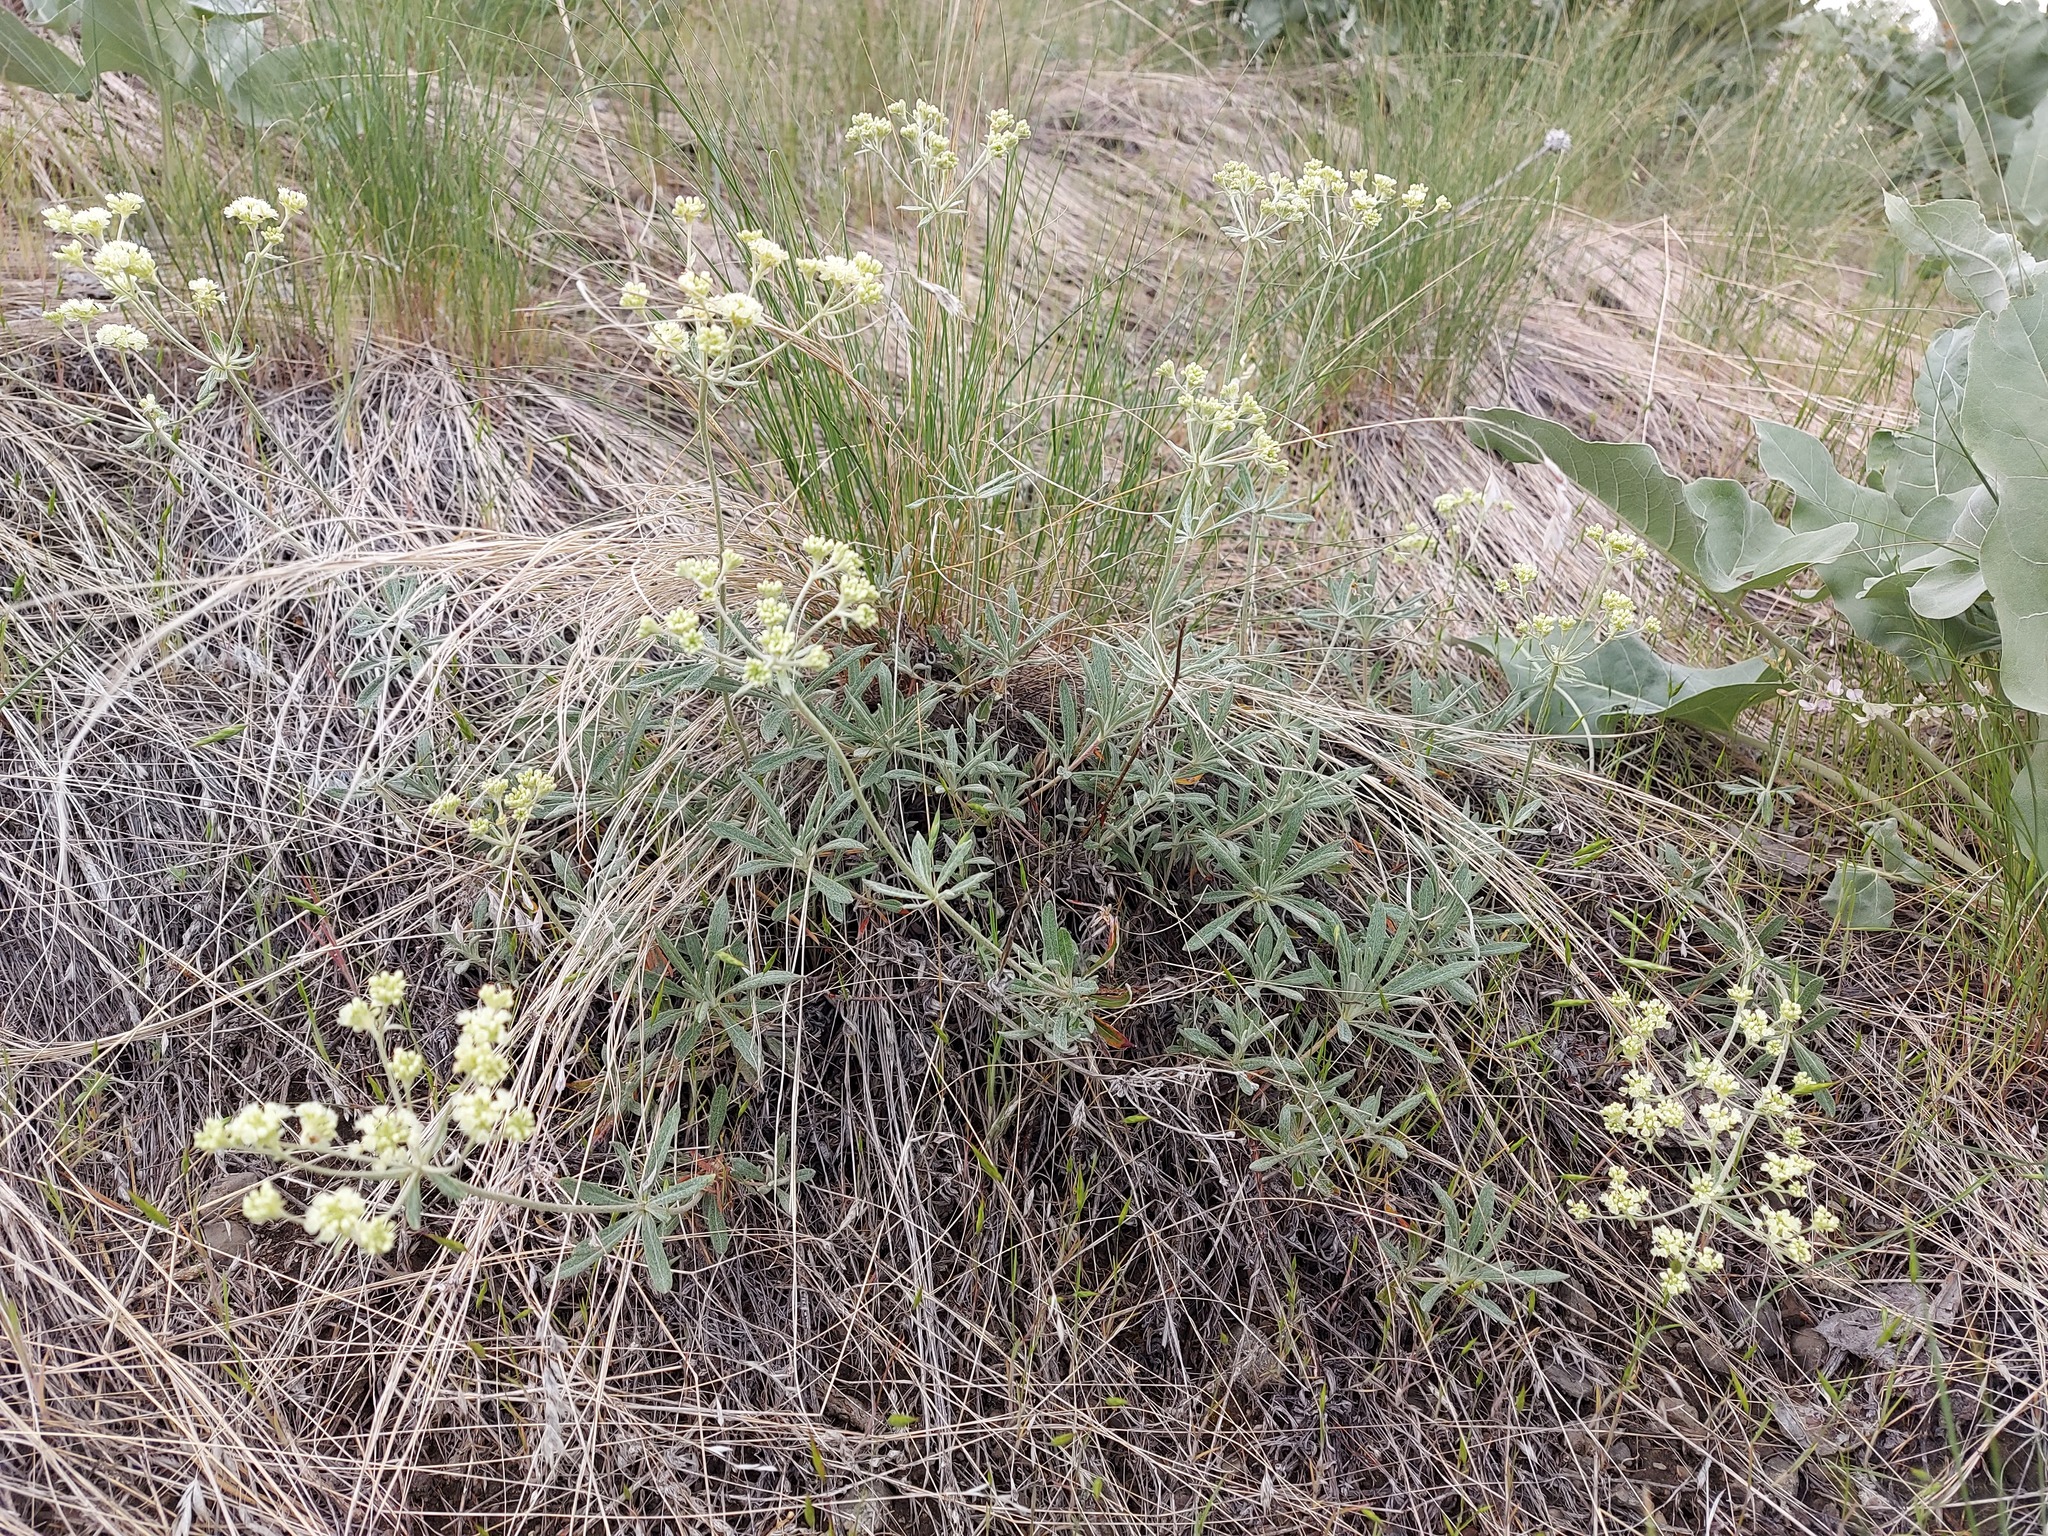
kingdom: Plantae
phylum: Tracheophyta
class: Magnoliopsida
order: Caryophyllales
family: Polygonaceae
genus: Eriogonum
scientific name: Eriogonum heracleoides
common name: Wyeth's buckwheat
